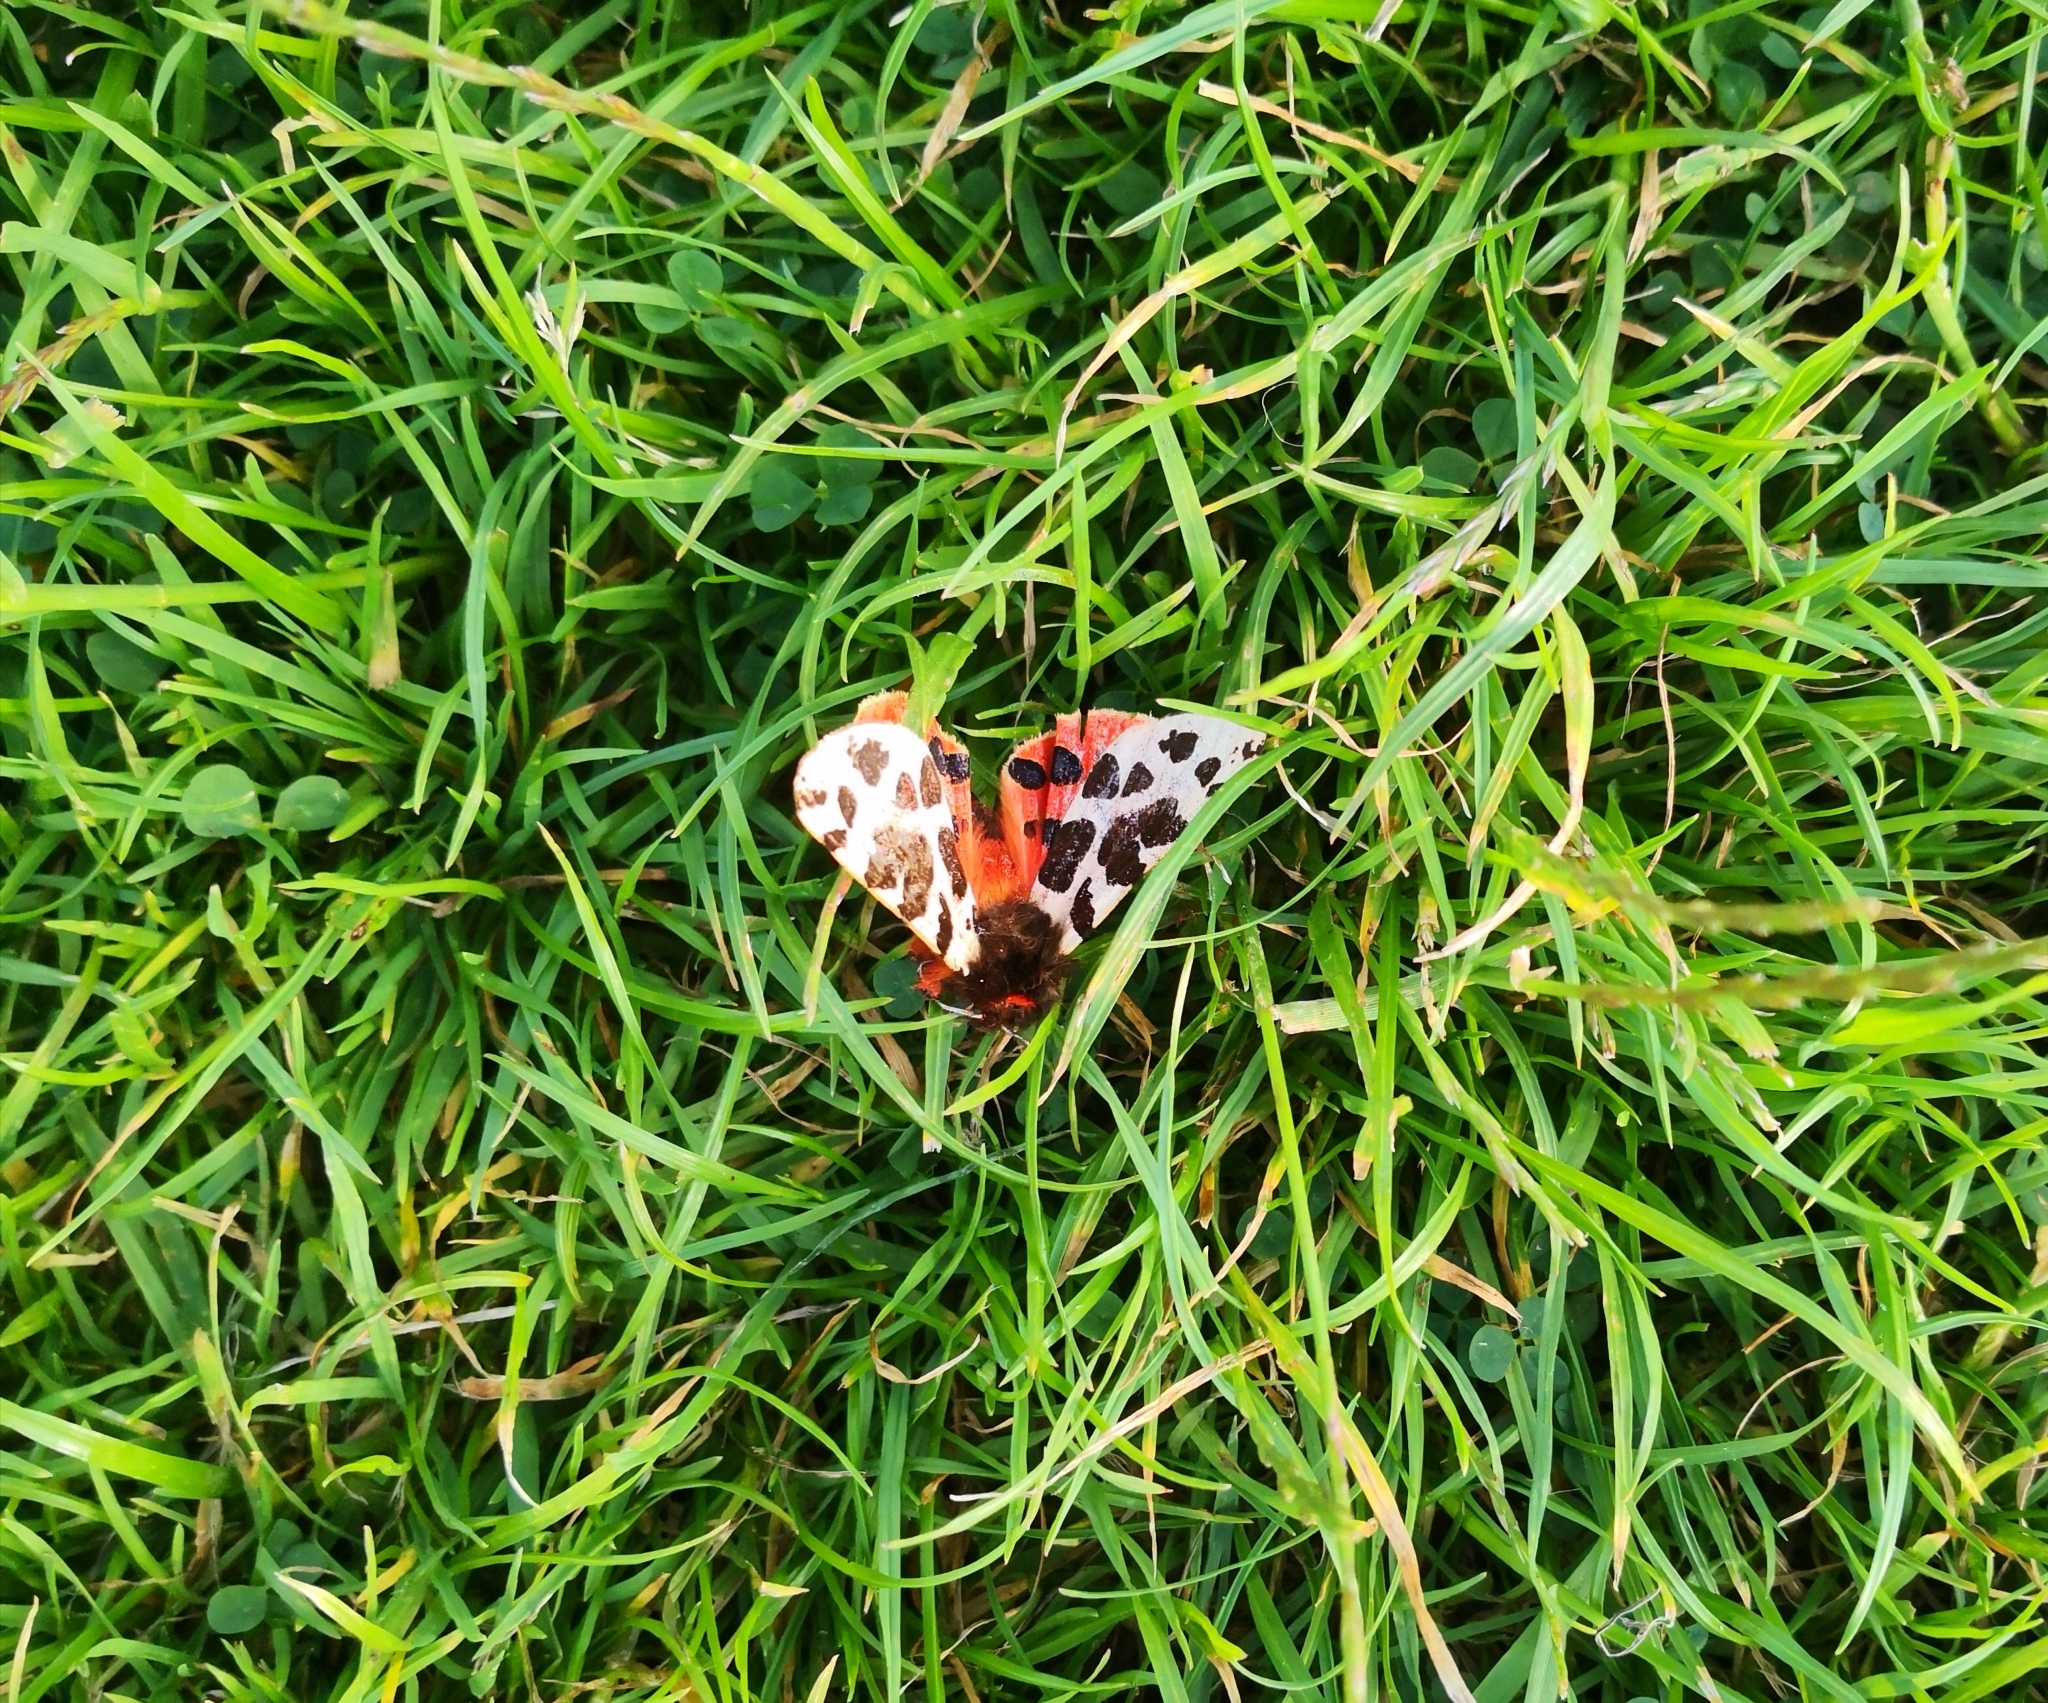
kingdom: Animalia
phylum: Arthropoda
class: Insecta
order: Lepidoptera
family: Erebidae
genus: Arctia
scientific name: Arctia caja
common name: Garden tiger
